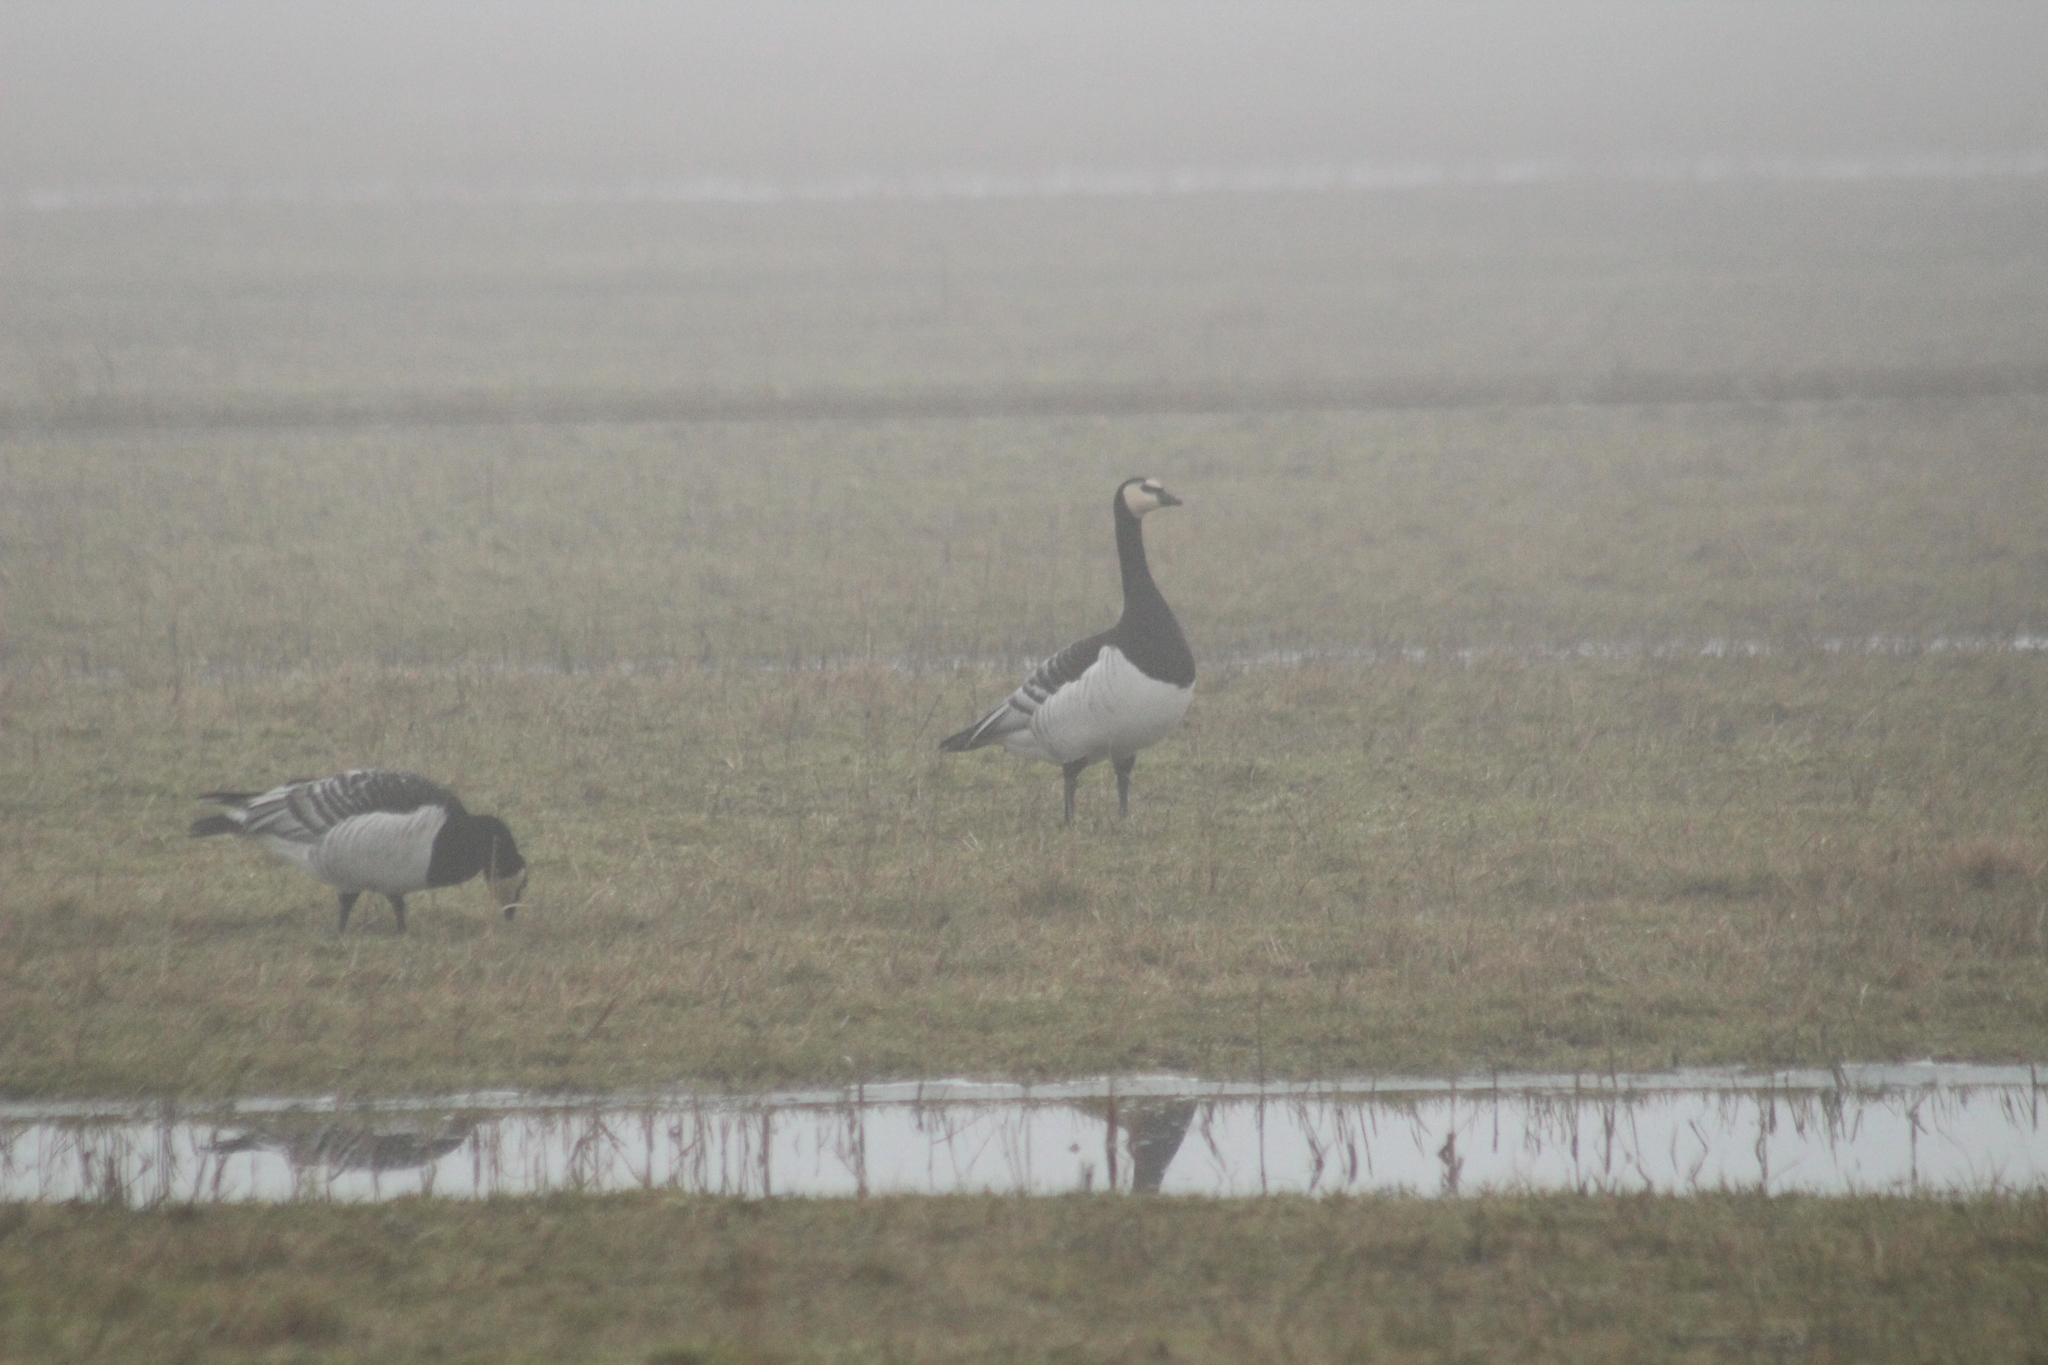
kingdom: Animalia
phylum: Chordata
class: Aves
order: Anseriformes
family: Anatidae
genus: Branta
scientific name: Branta leucopsis
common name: Barnacle goose
